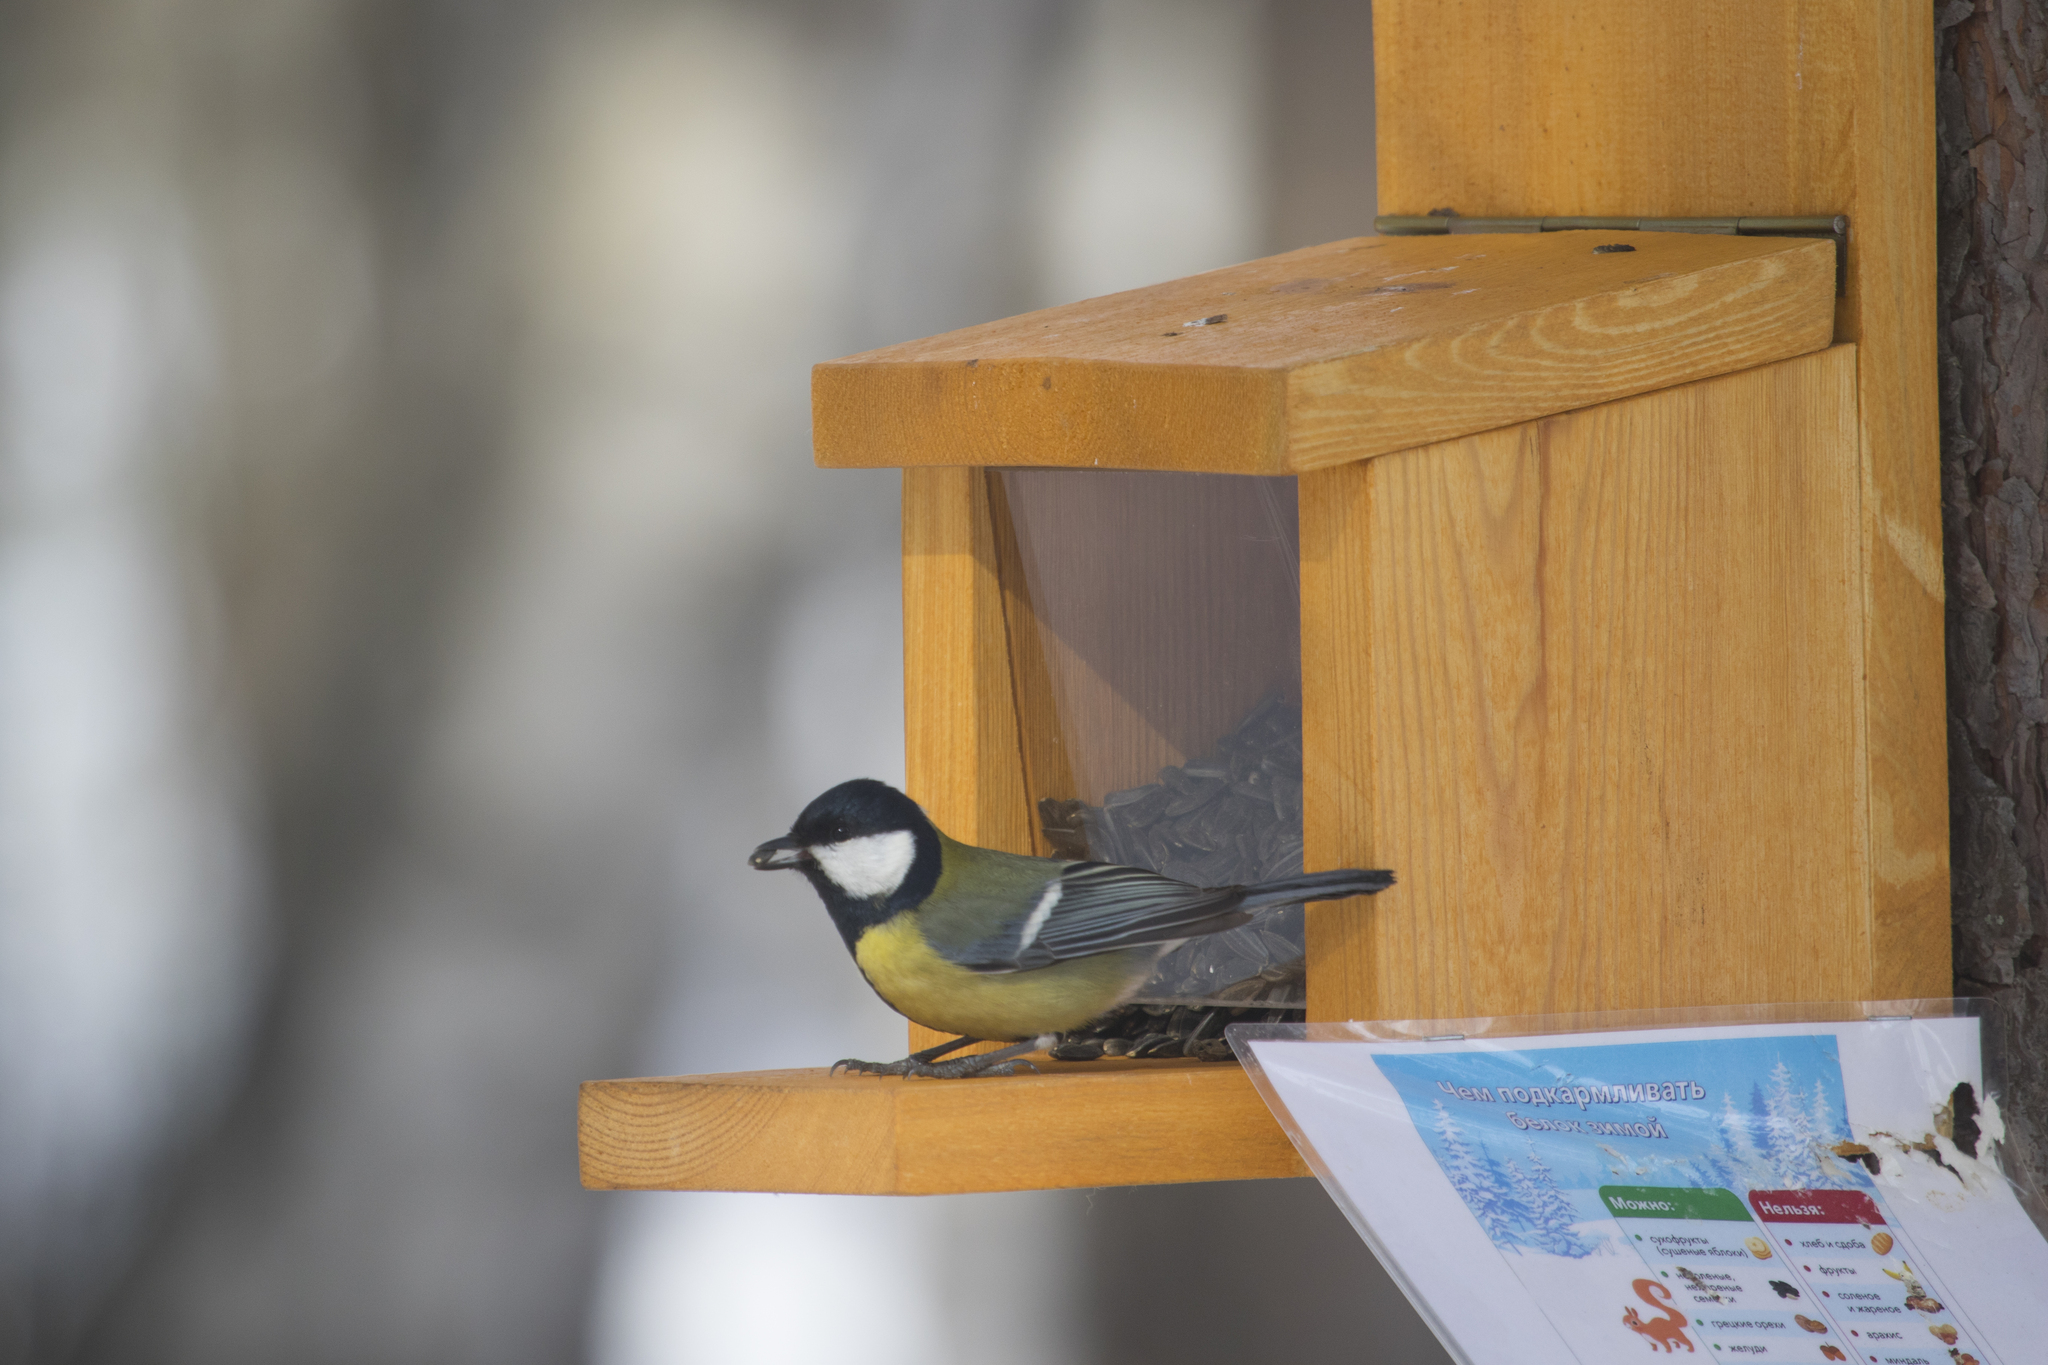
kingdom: Animalia
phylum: Chordata
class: Aves
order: Passeriformes
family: Paridae
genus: Parus
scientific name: Parus major
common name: Great tit
